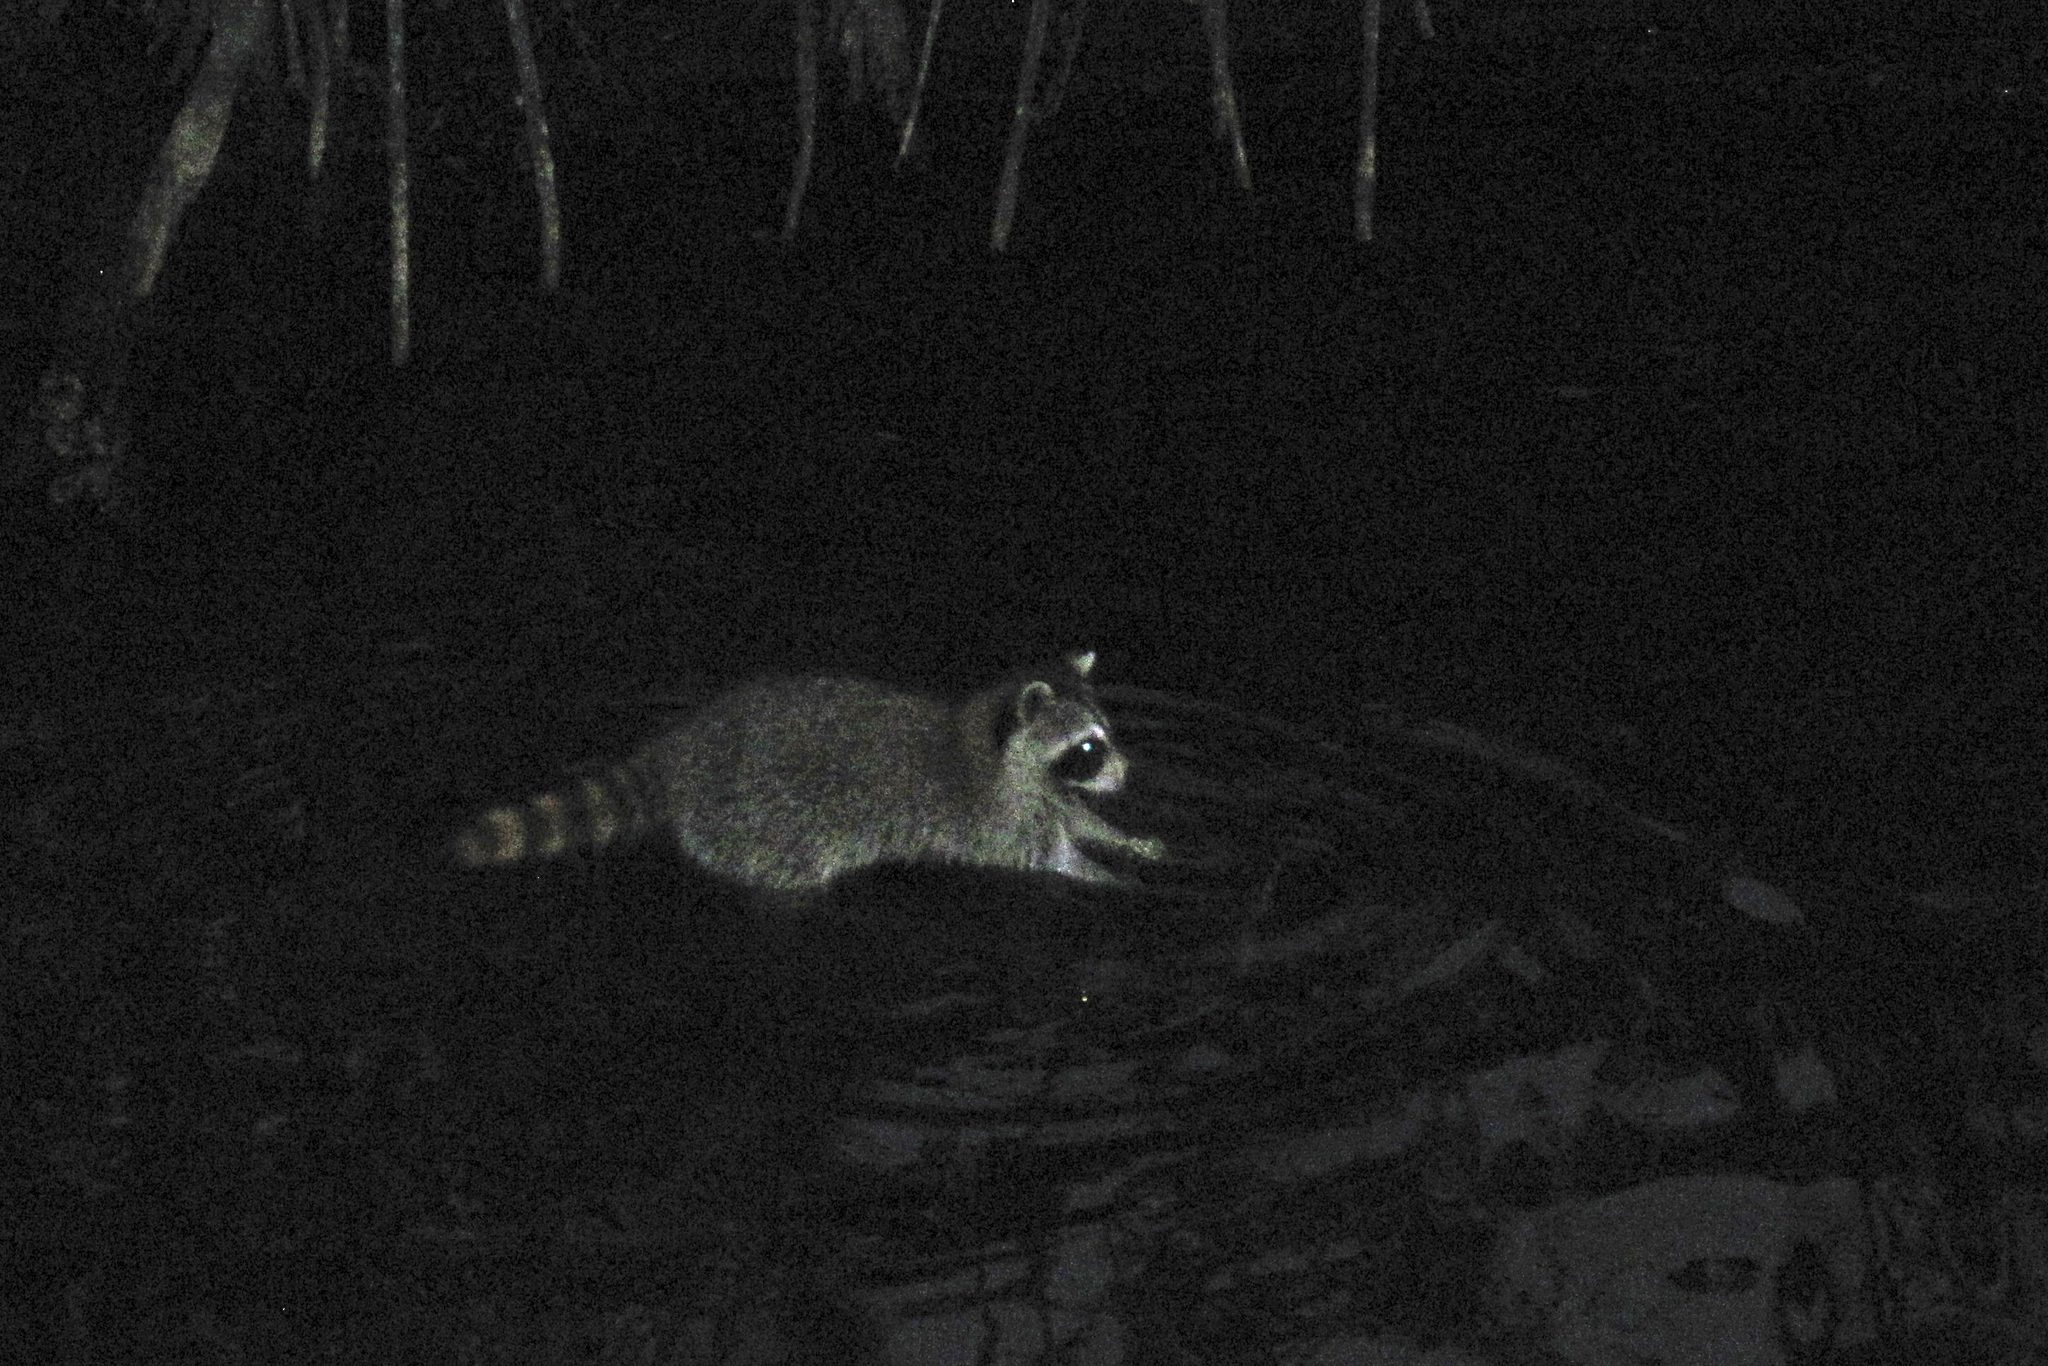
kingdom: Animalia
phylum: Chordata
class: Mammalia
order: Carnivora
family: Procyonidae
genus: Procyon
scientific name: Procyon lotor
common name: Raccoon
